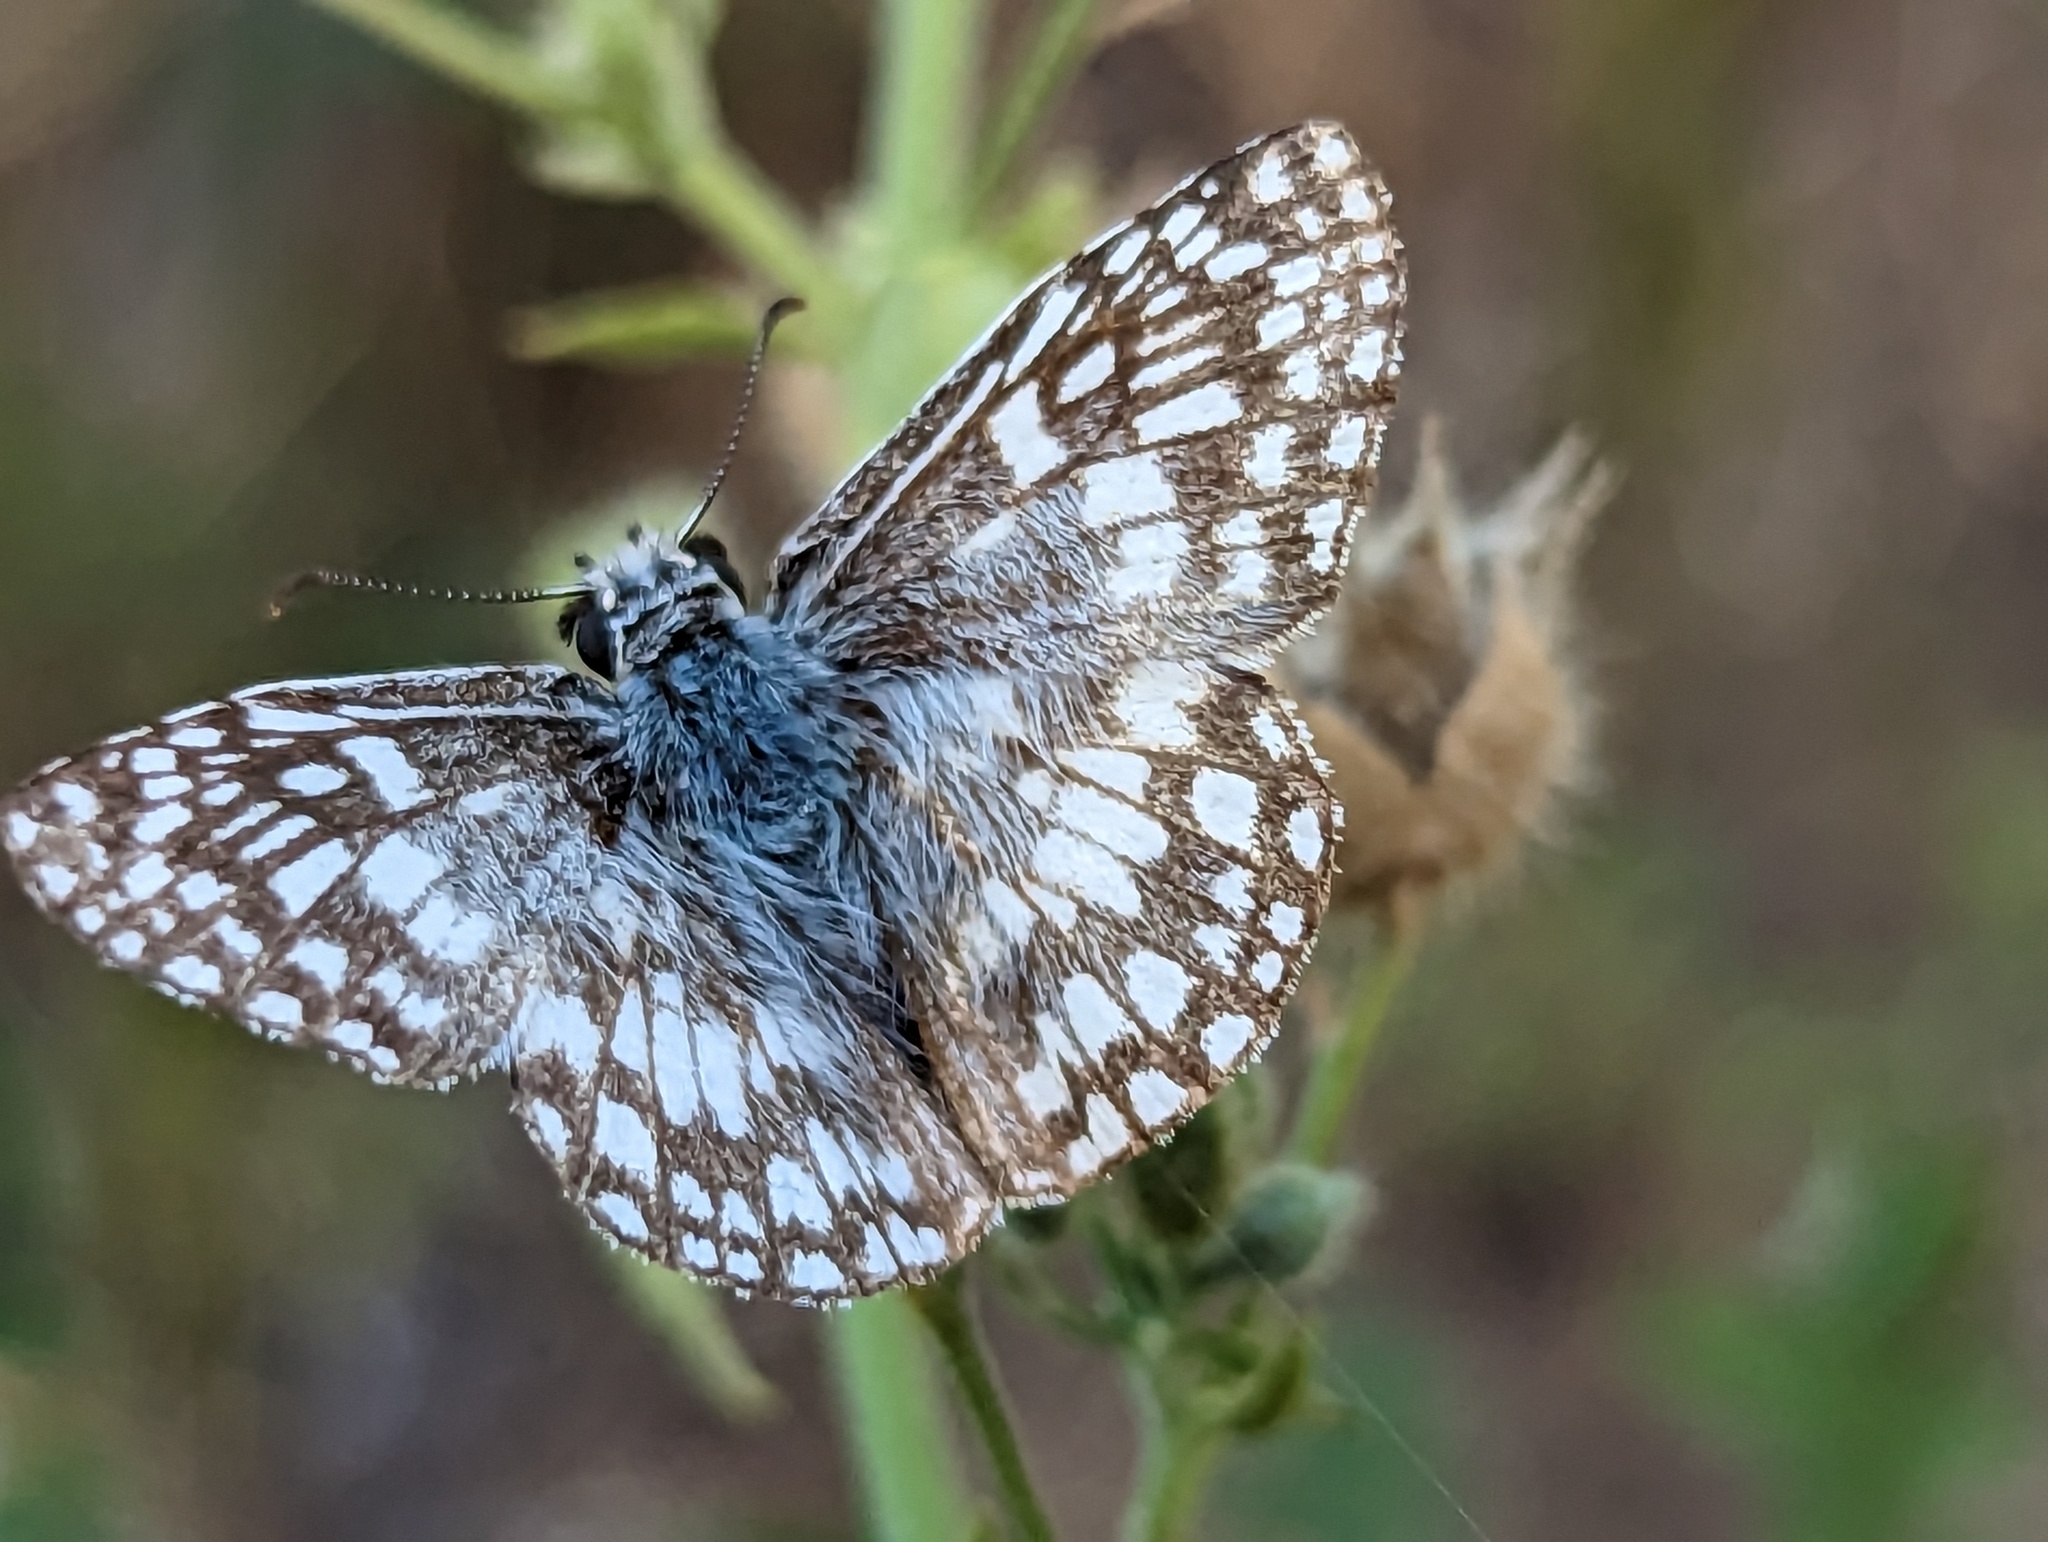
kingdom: Animalia
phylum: Arthropoda
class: Insecta
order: Lepidoptera
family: Hesperiidae
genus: Pyrgus
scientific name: Pyrgus oileus
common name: Tropical checkered-skipper
